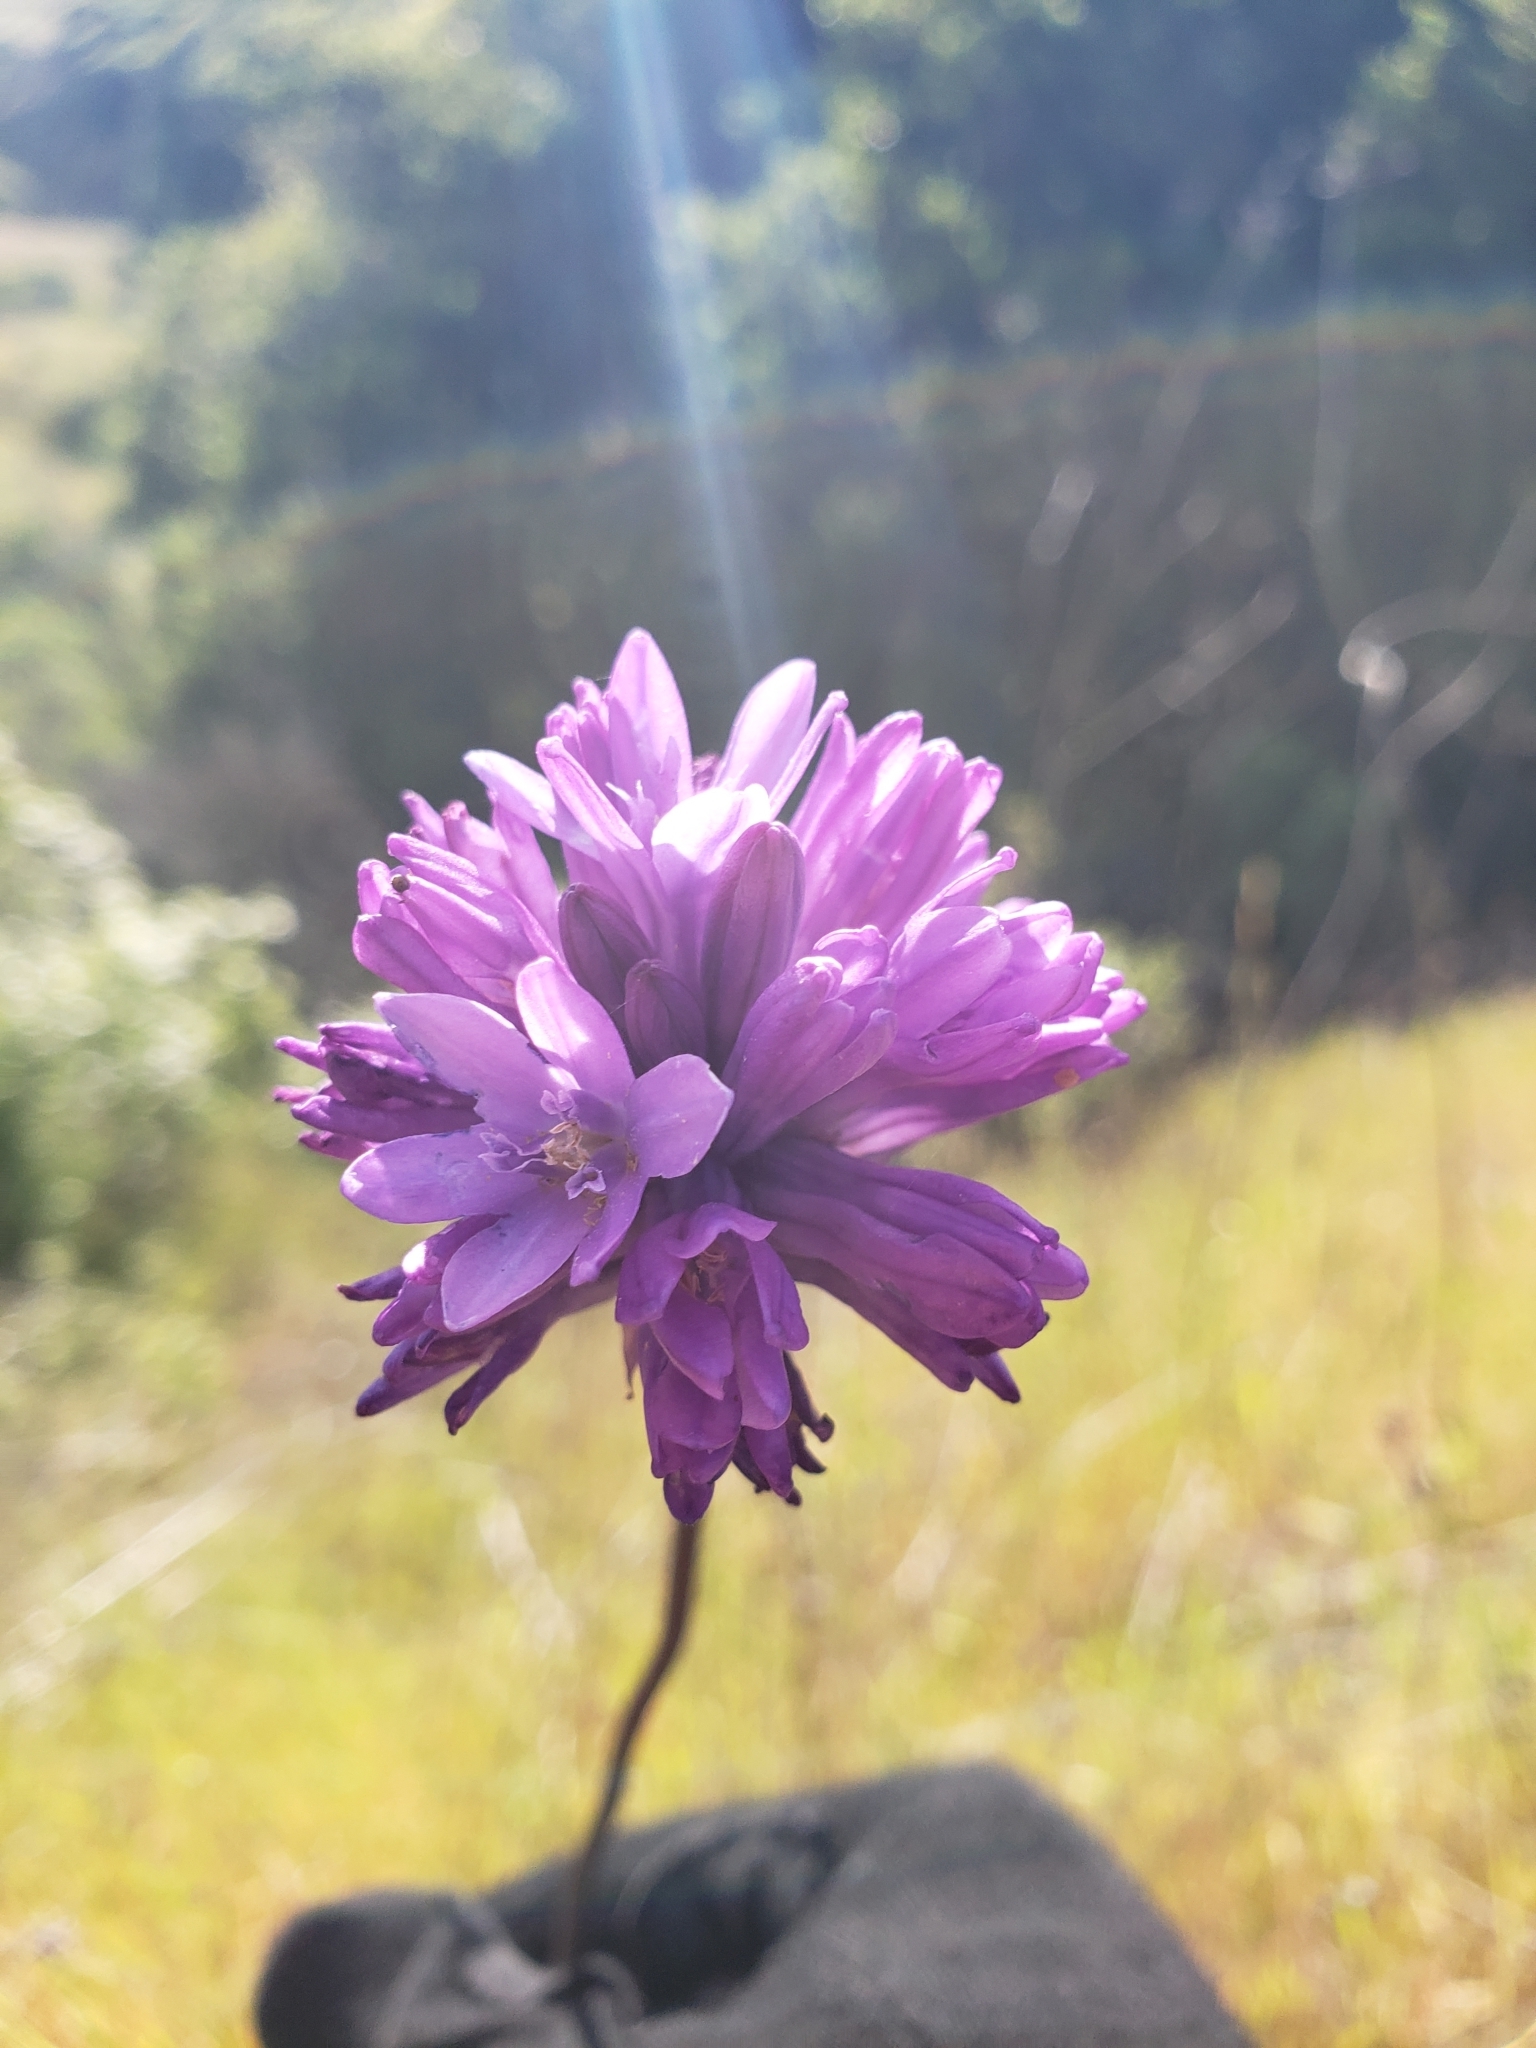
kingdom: Plantae
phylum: Tracheophyta
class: Liliopsida
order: Asparagales
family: Asparagaceae
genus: Dichelostemma
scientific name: Dichelostemma congestum
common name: Fork-tooth ookow
